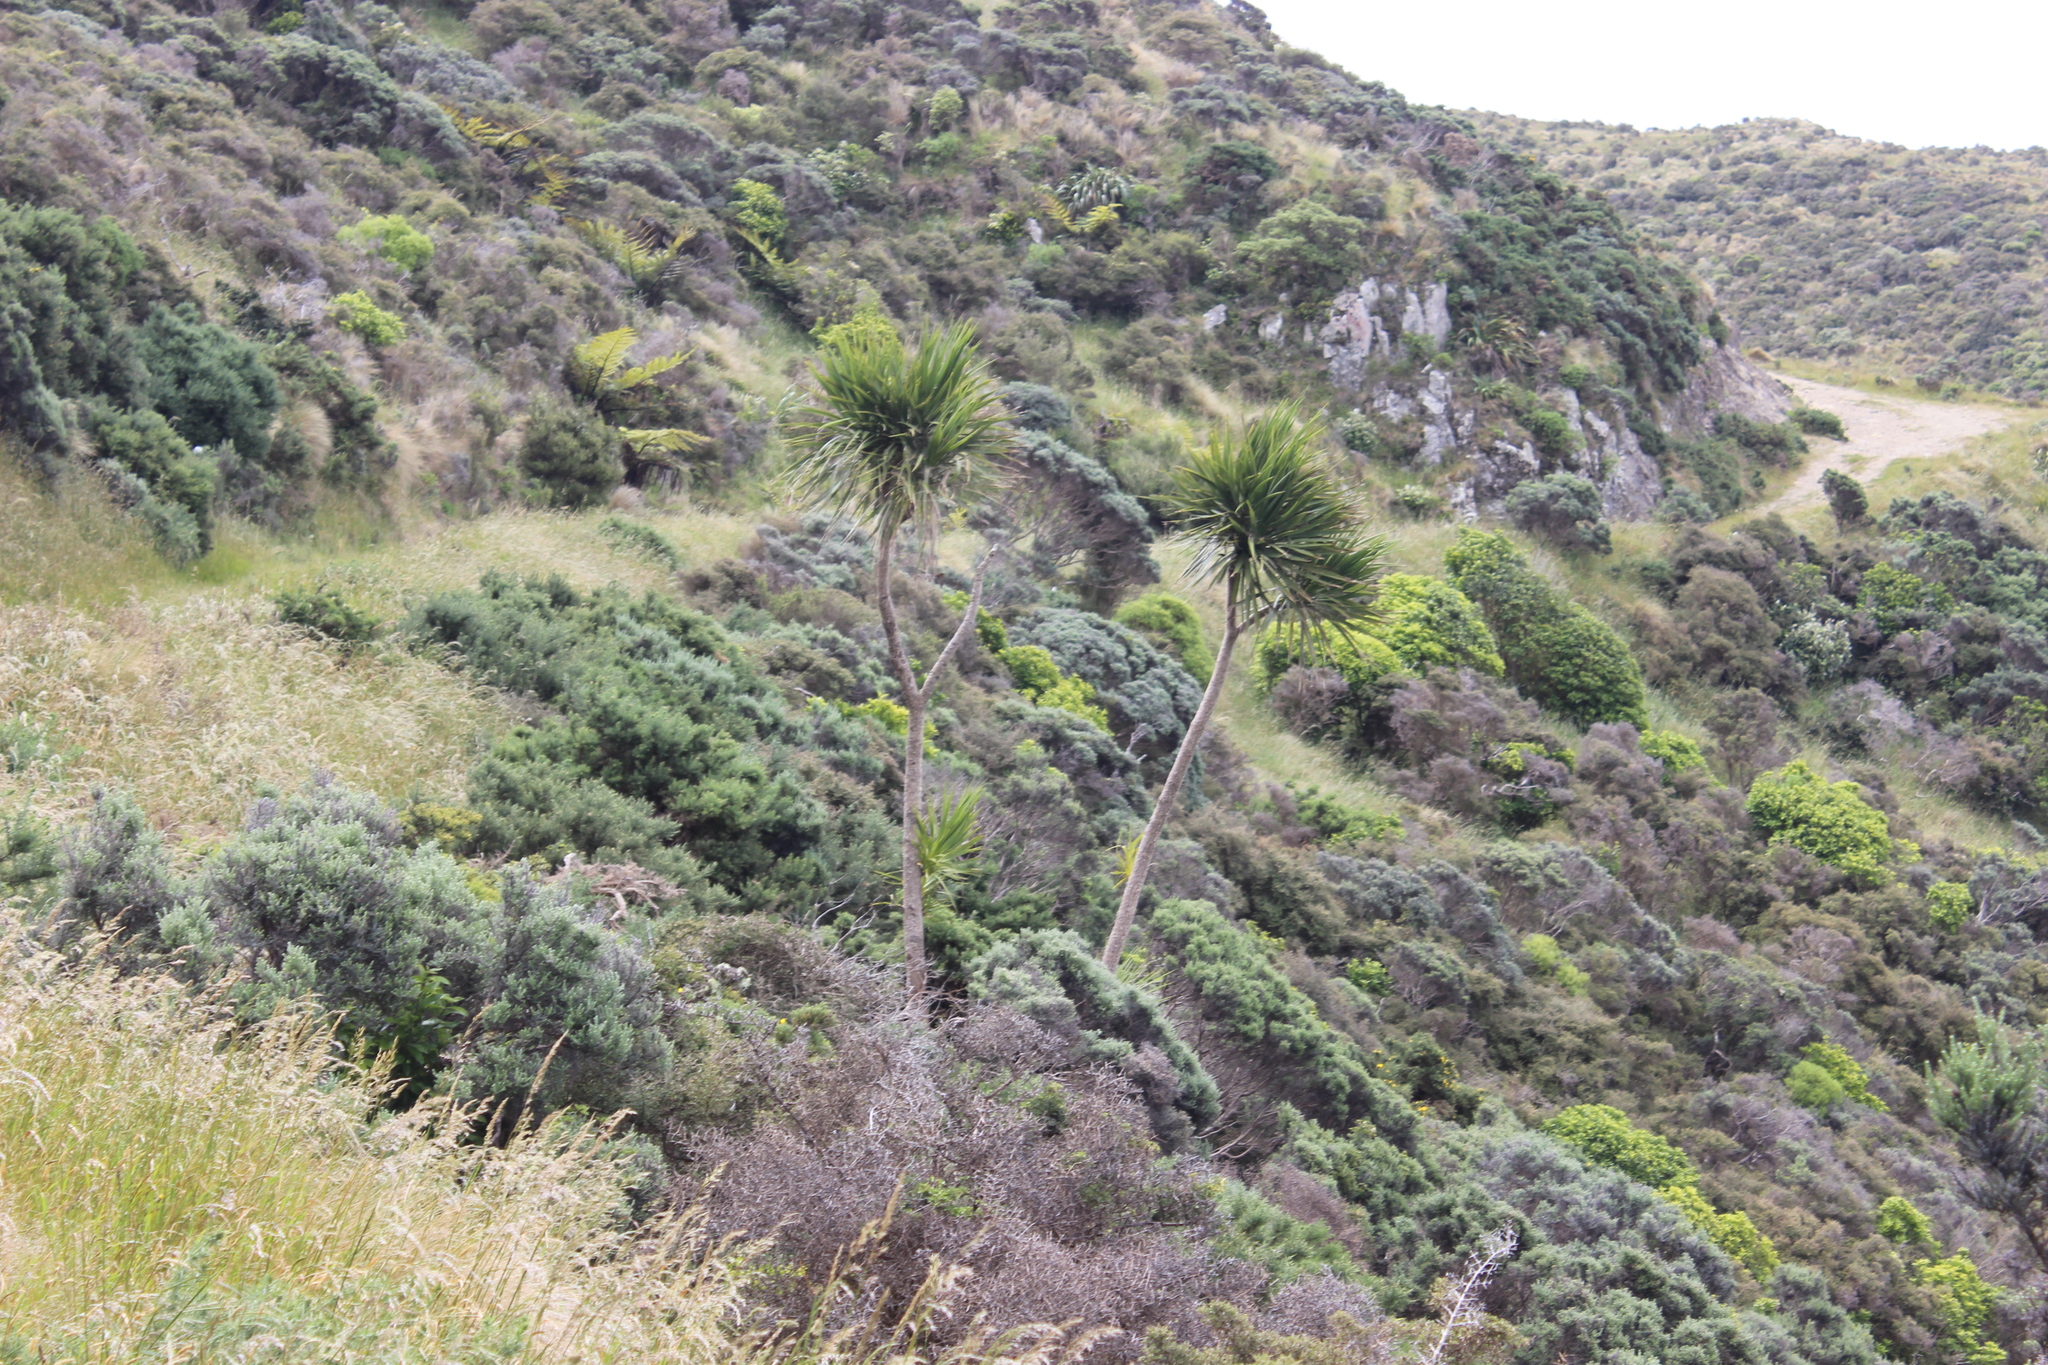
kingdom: Plantae
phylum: Tracheophyta
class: Liliopsida
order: Asparagales
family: Asparagaceae
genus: Cordyline
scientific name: Cordyline australis
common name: Cabbage-palm
